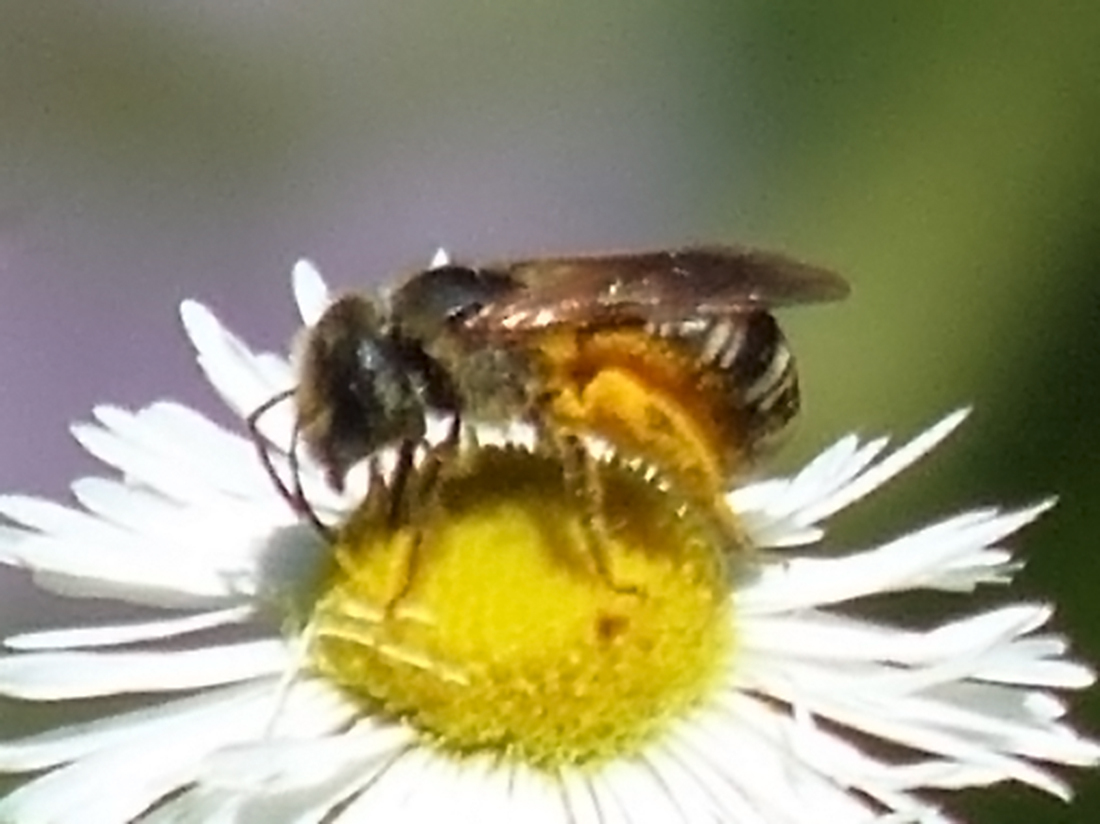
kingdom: Animalia
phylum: Arthropoda
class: Insecta
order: Hymenoptera
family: Halictidae
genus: Halictus
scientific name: Halictus ligatus
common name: Ligated furrow bee
